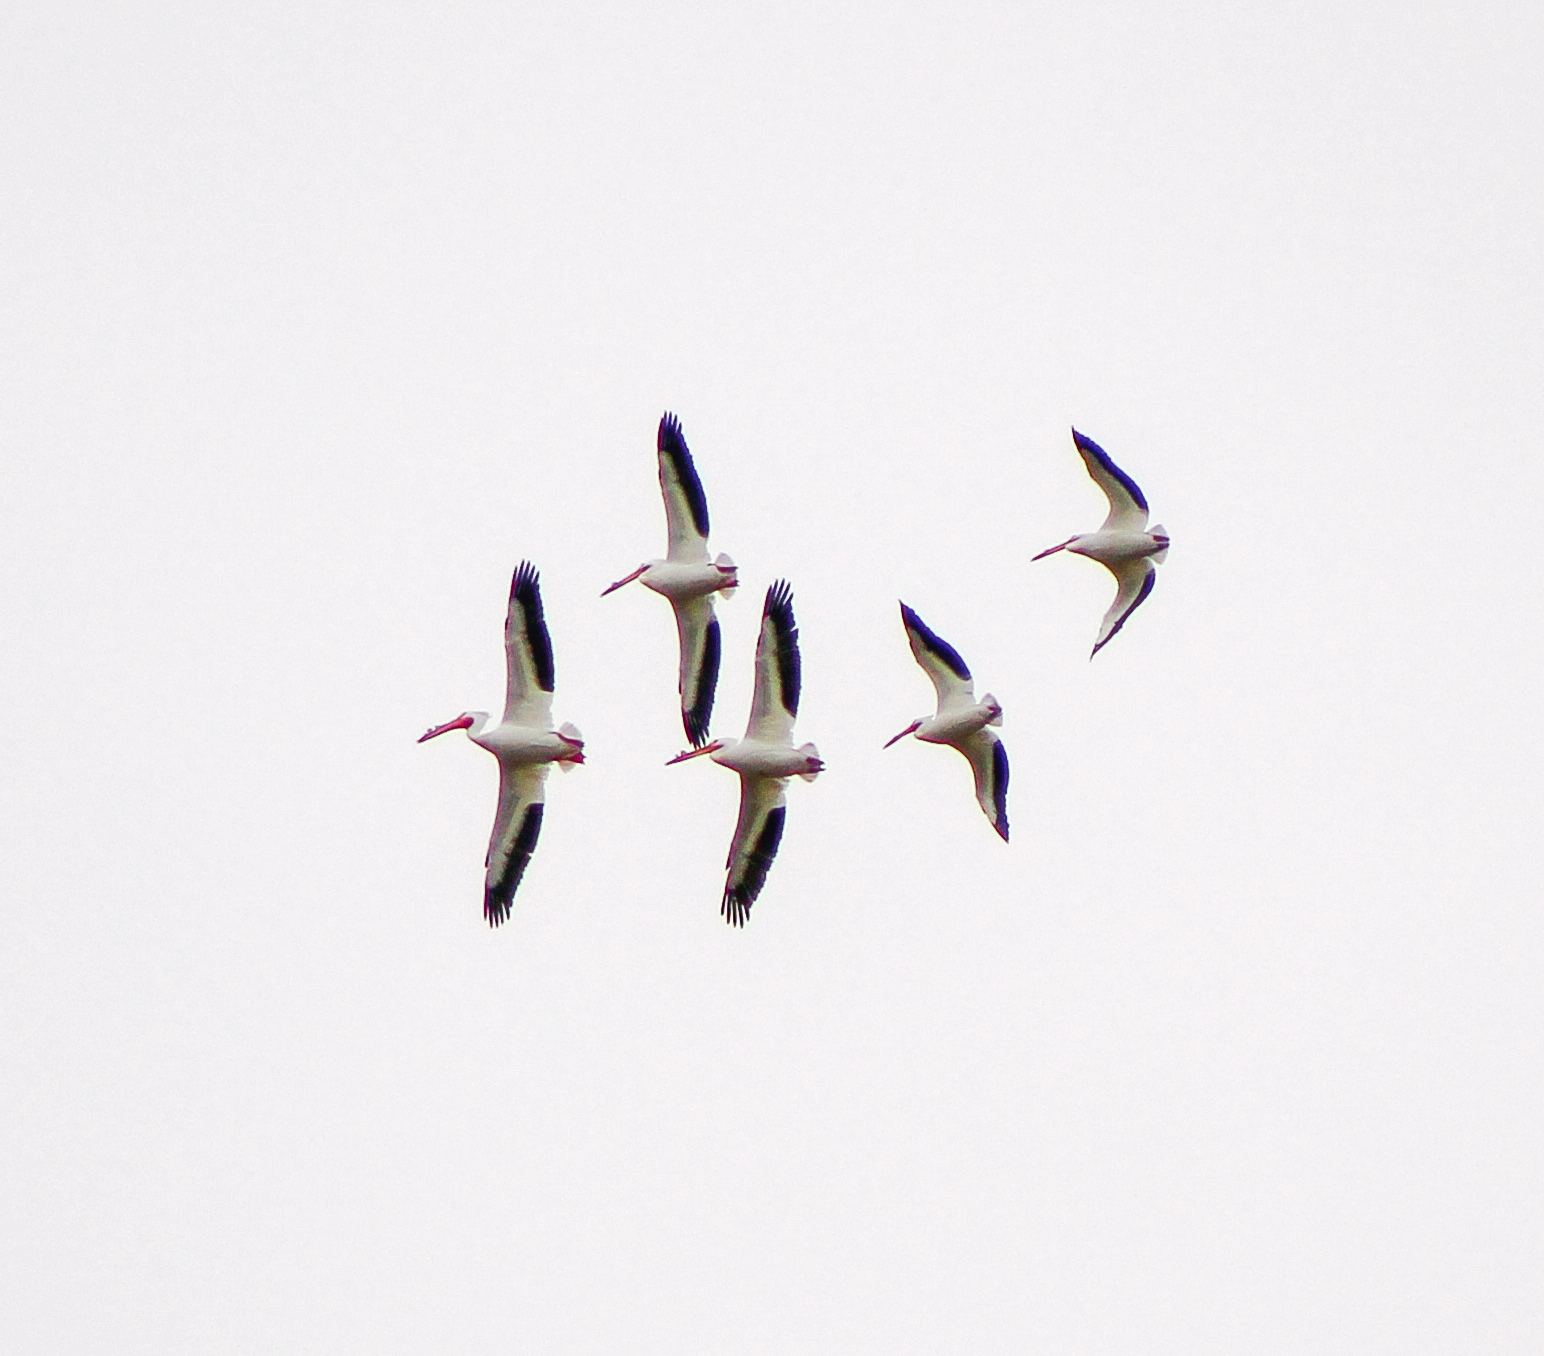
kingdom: Animalia
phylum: Chordata
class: Aves
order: Pelecaniformes
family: Pelecanidae
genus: Pelecanus
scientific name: Pelecanus erythrorhynchos
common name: American white pelican
